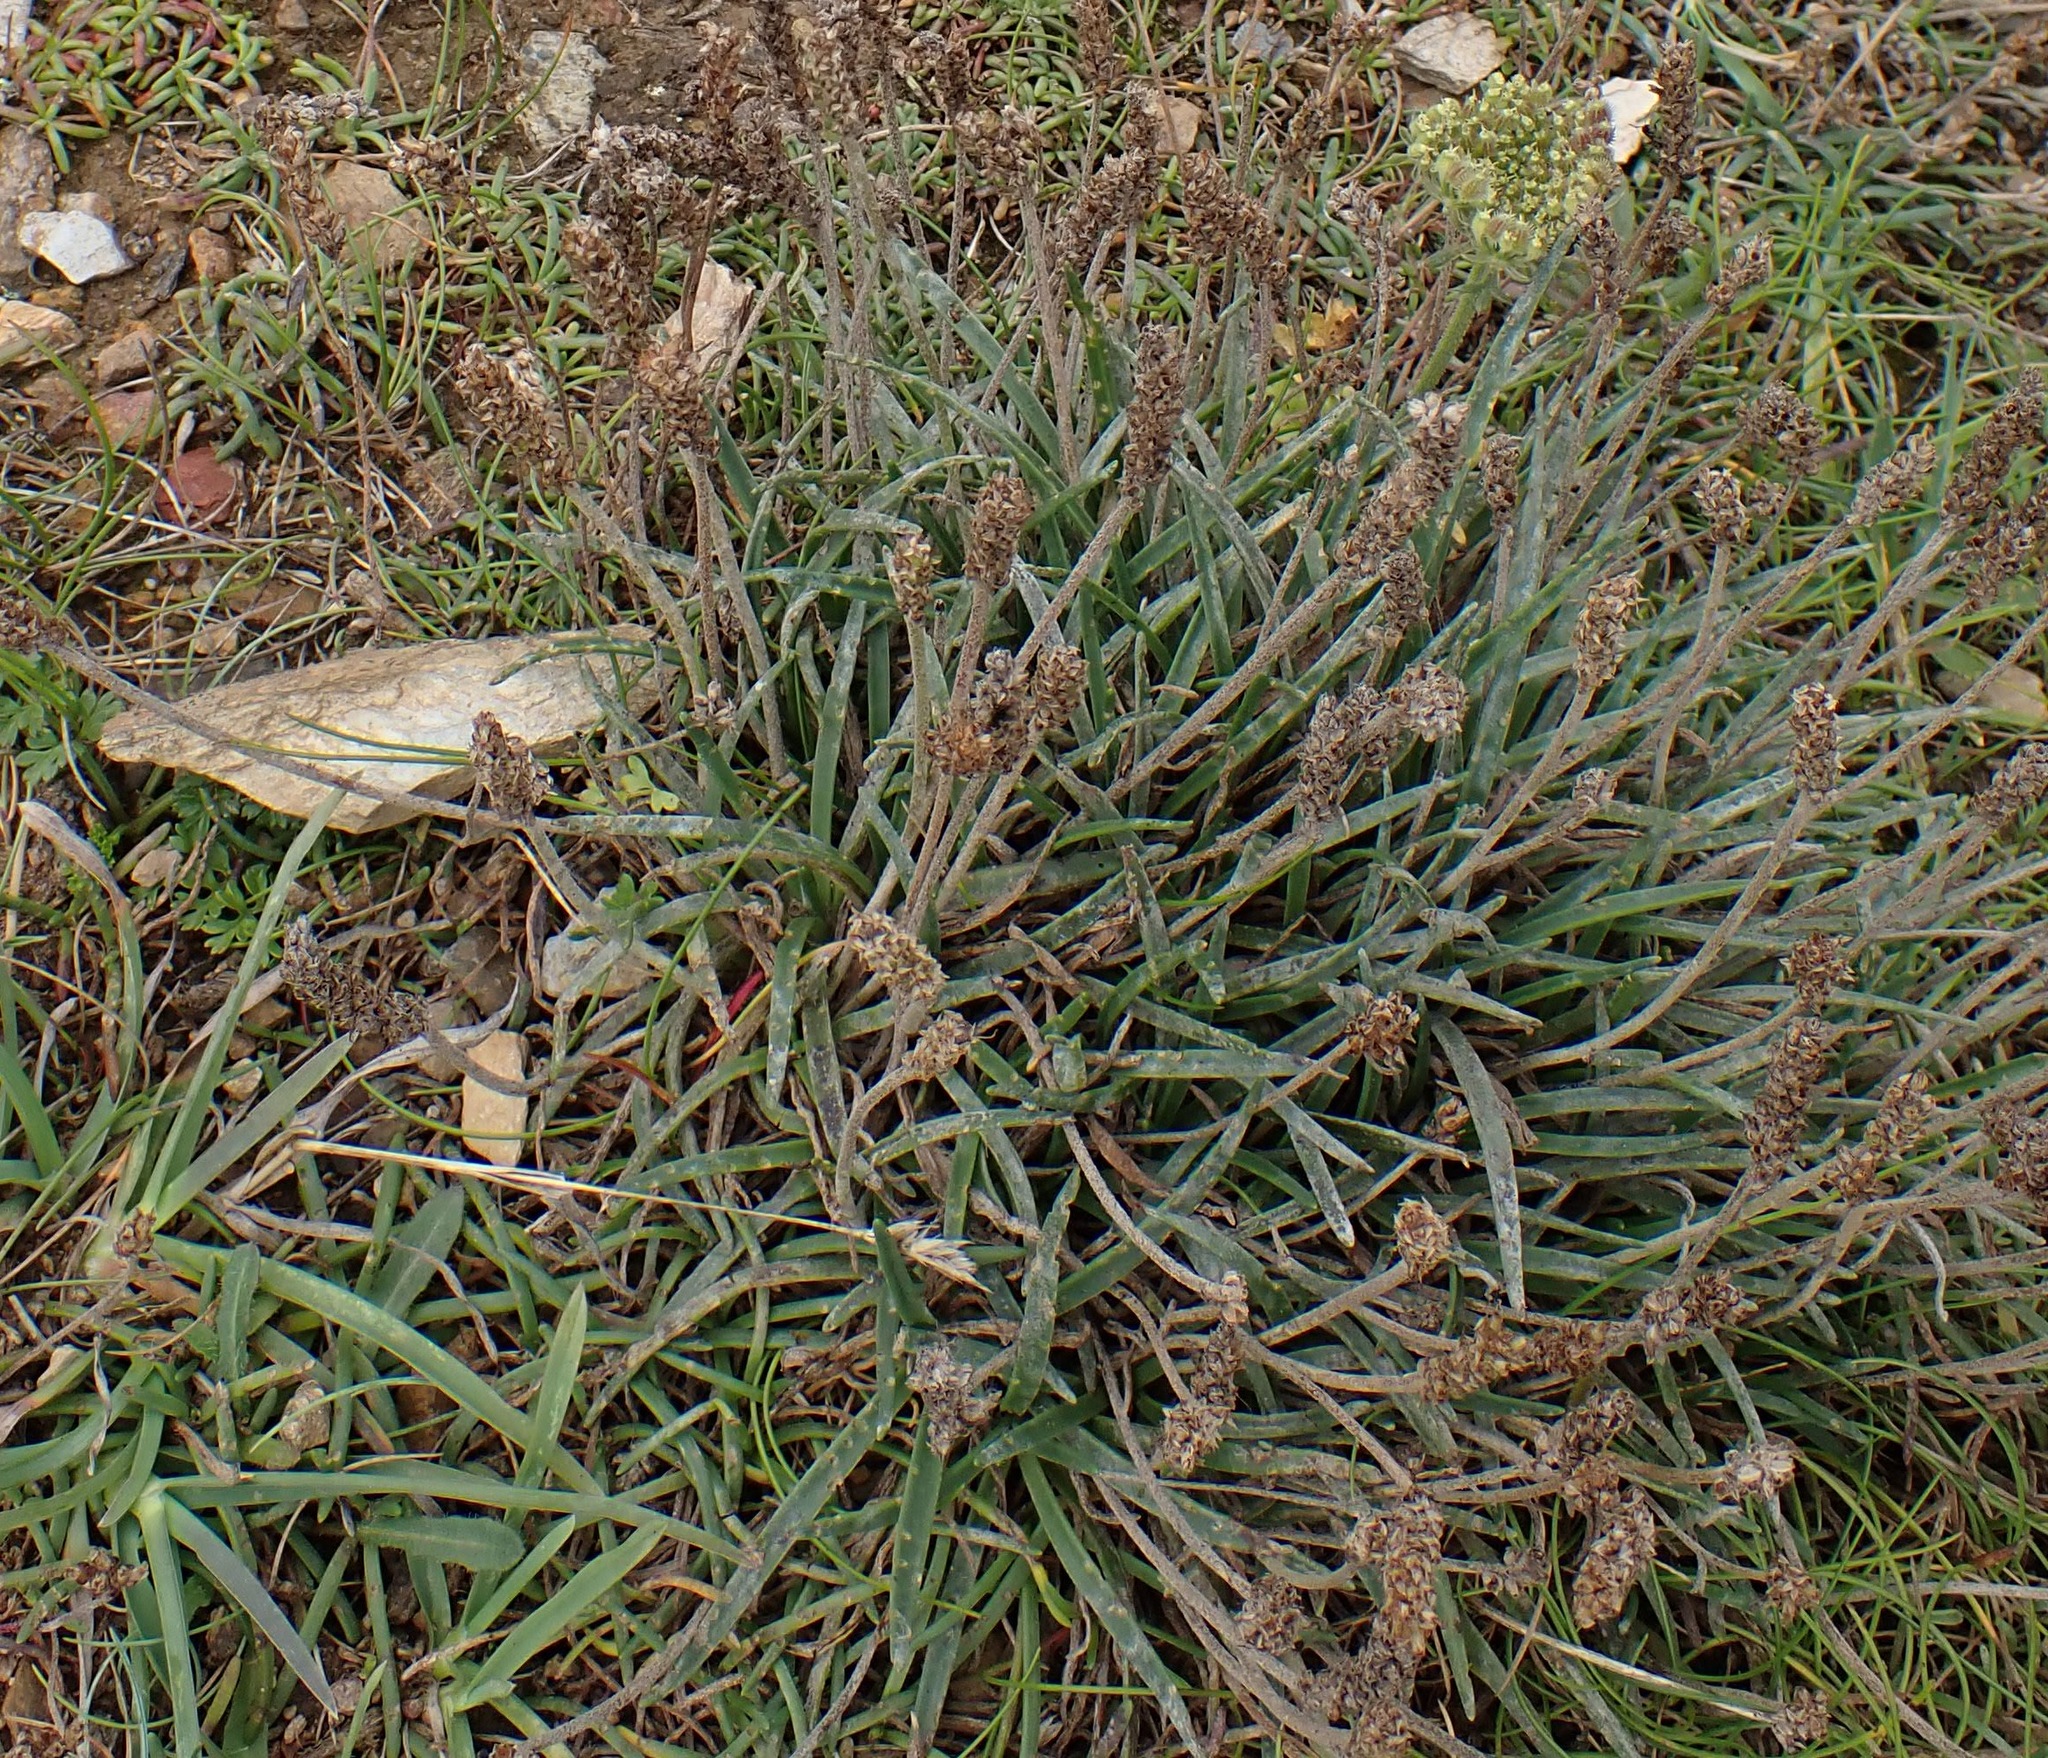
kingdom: Plantae
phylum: Tracheophyta
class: Magnoliopsida
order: Lamiales
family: Plantaginaceae
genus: Plantago
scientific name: Plantago maritima
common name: Sea plantain
